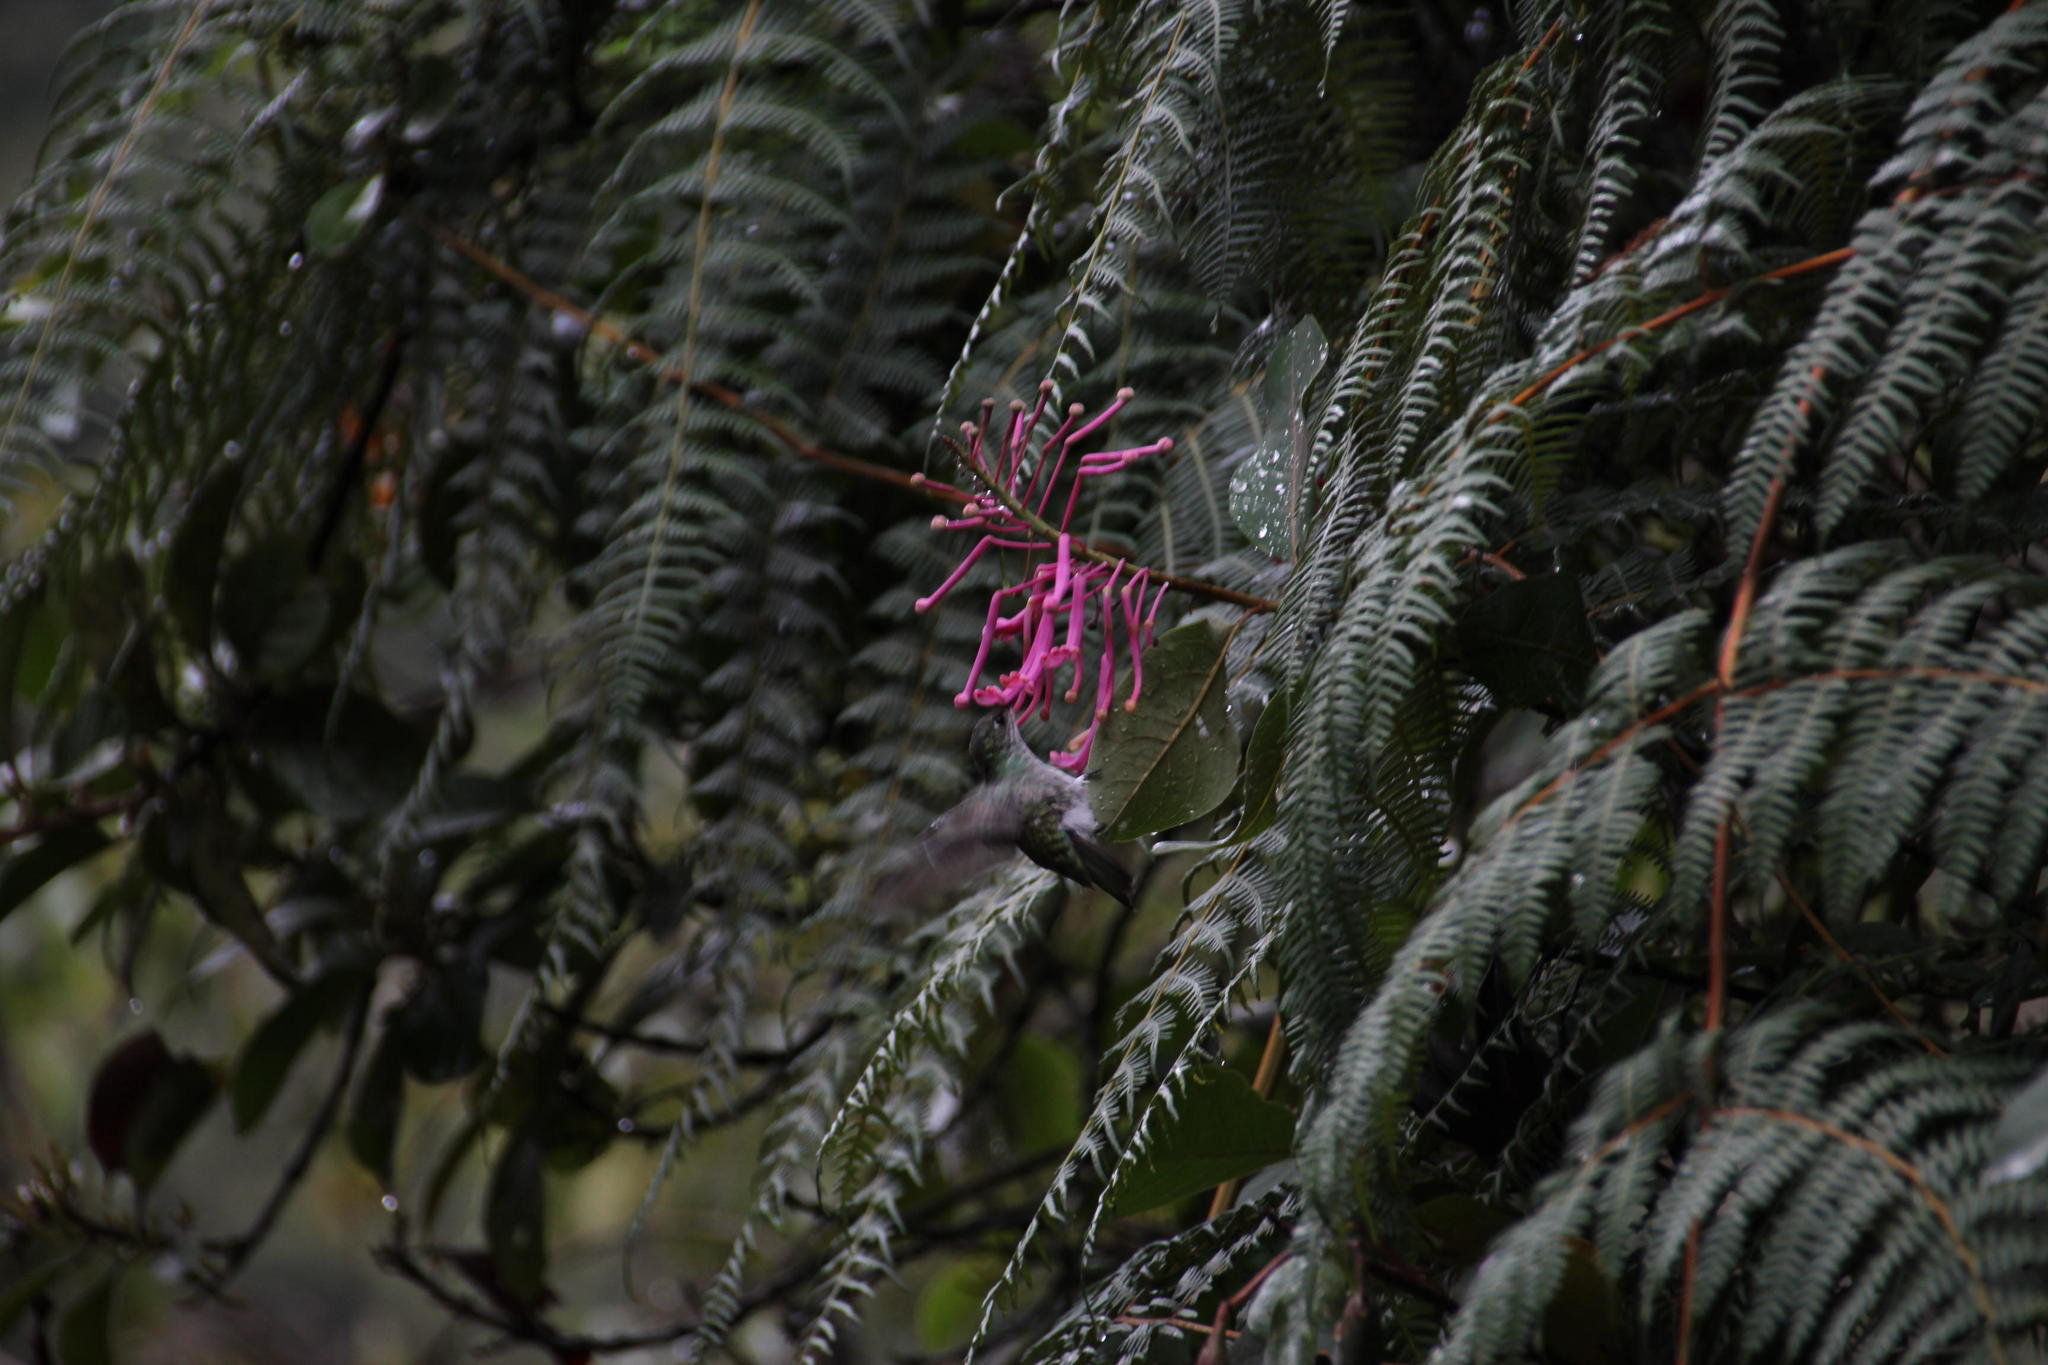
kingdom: Plantae
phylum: Tracheophyta
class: Polypodiopsida
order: Polypodiales
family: Dennstaedtiaceae
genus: Pteridium
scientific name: Pteridium esculentum
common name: Bracken fern
